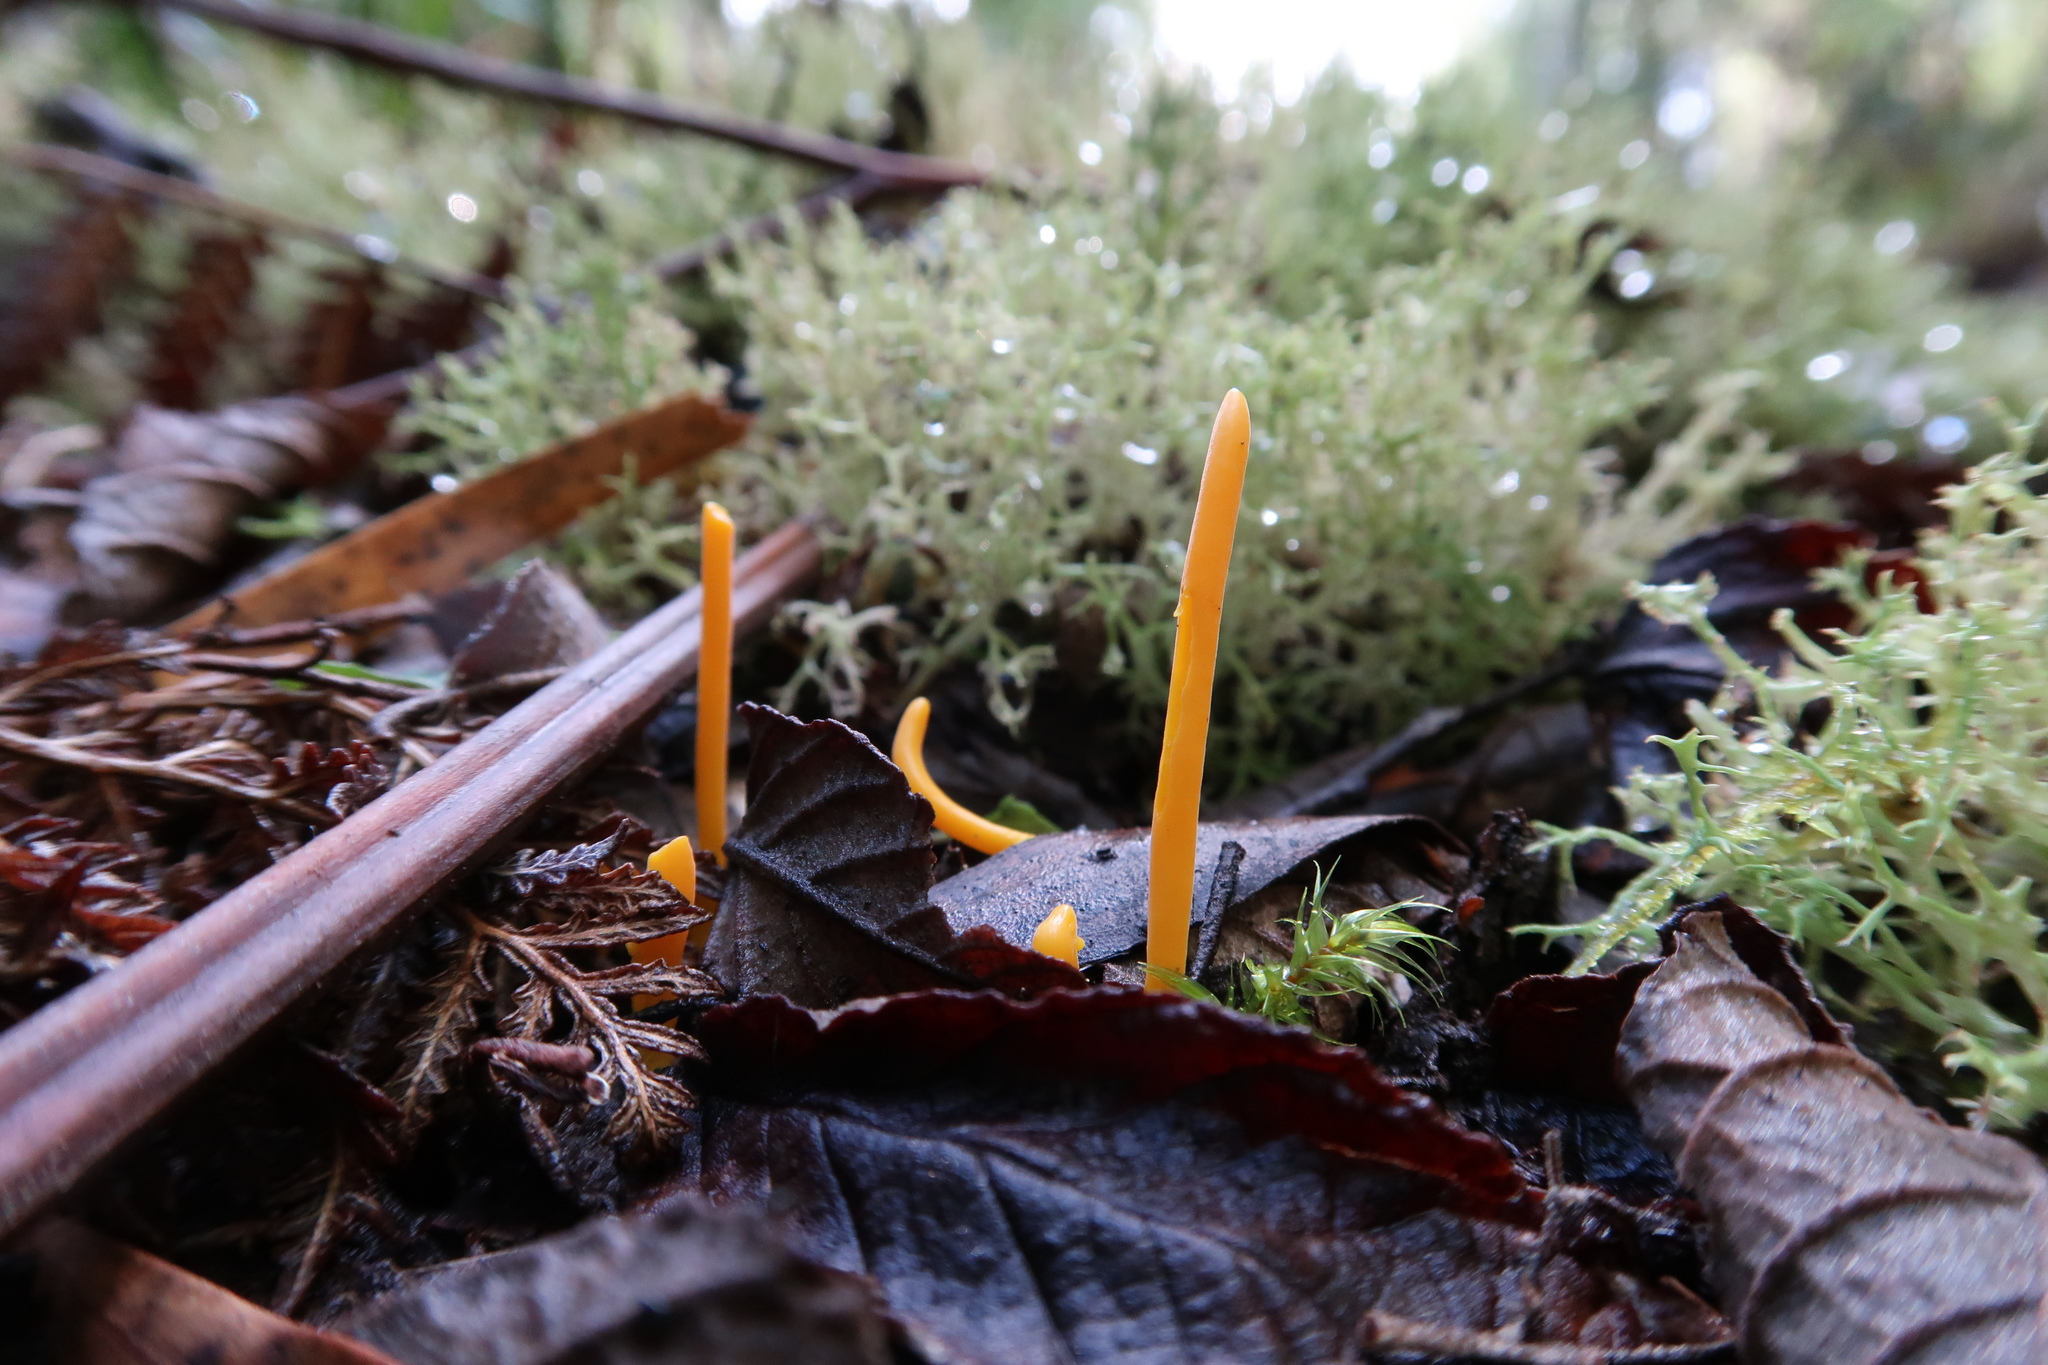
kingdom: Fungi
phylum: Basidiomycota
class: Agaricomycetes
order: Agaricales
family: Clavariaceae
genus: Clavulinopsis
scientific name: Clavulinopsis amoena
